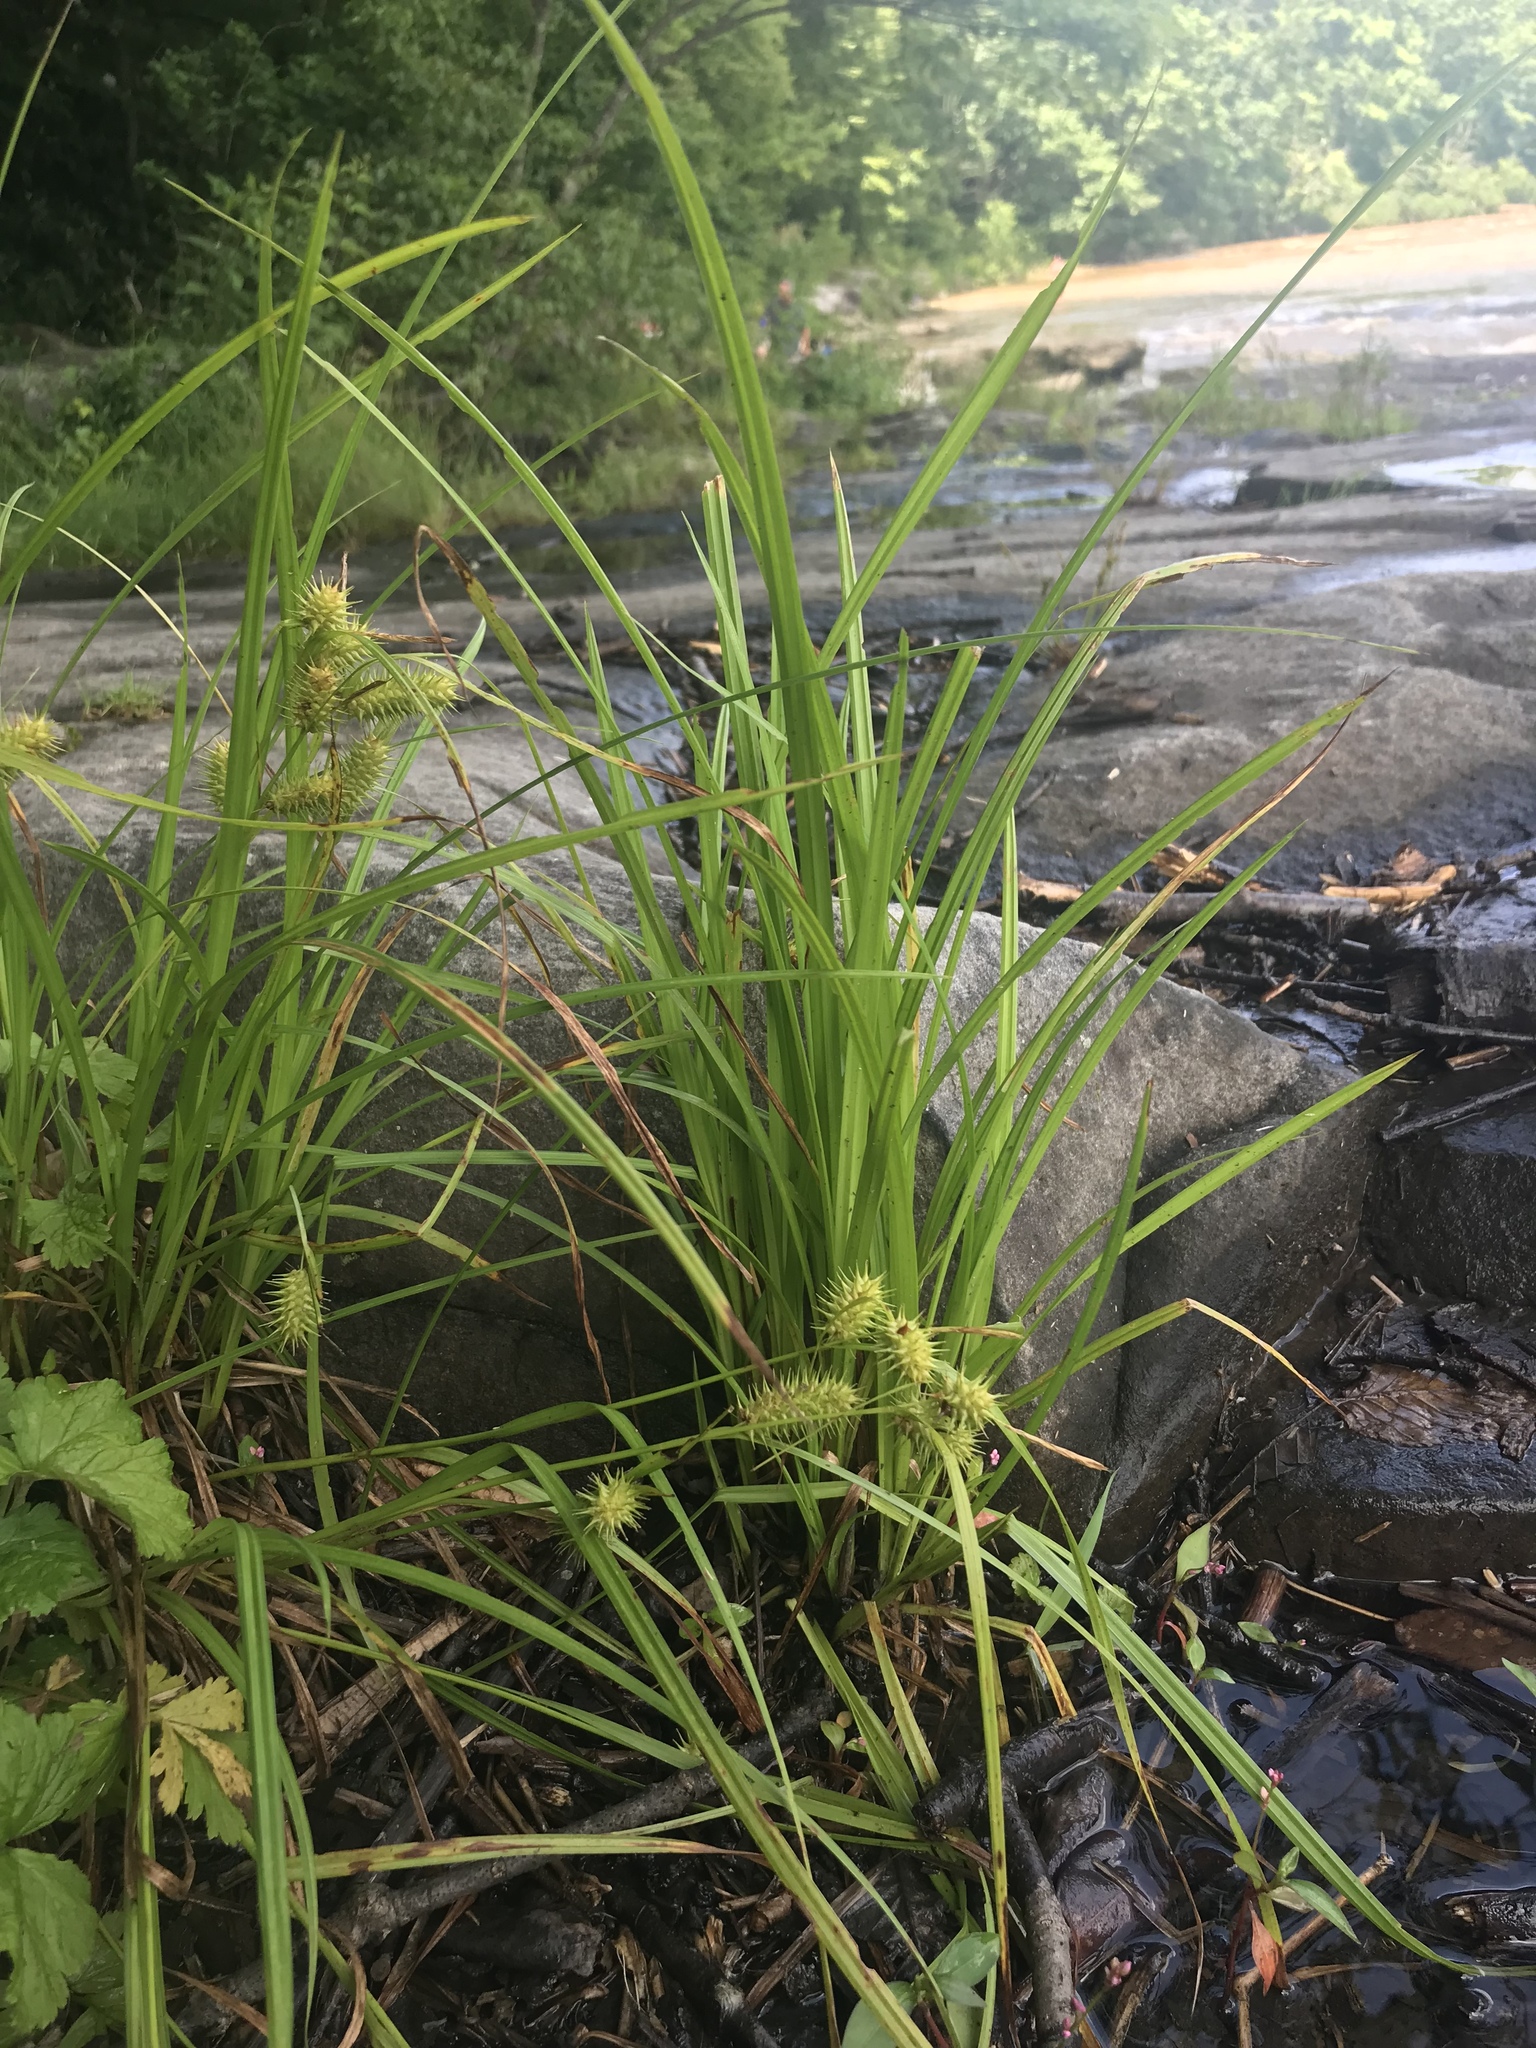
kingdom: Plantae
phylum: Tracheophyta
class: Liliopsida
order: Poales
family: Cyperaceae
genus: Carex
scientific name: Carex lurida
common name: Sallow sedge
